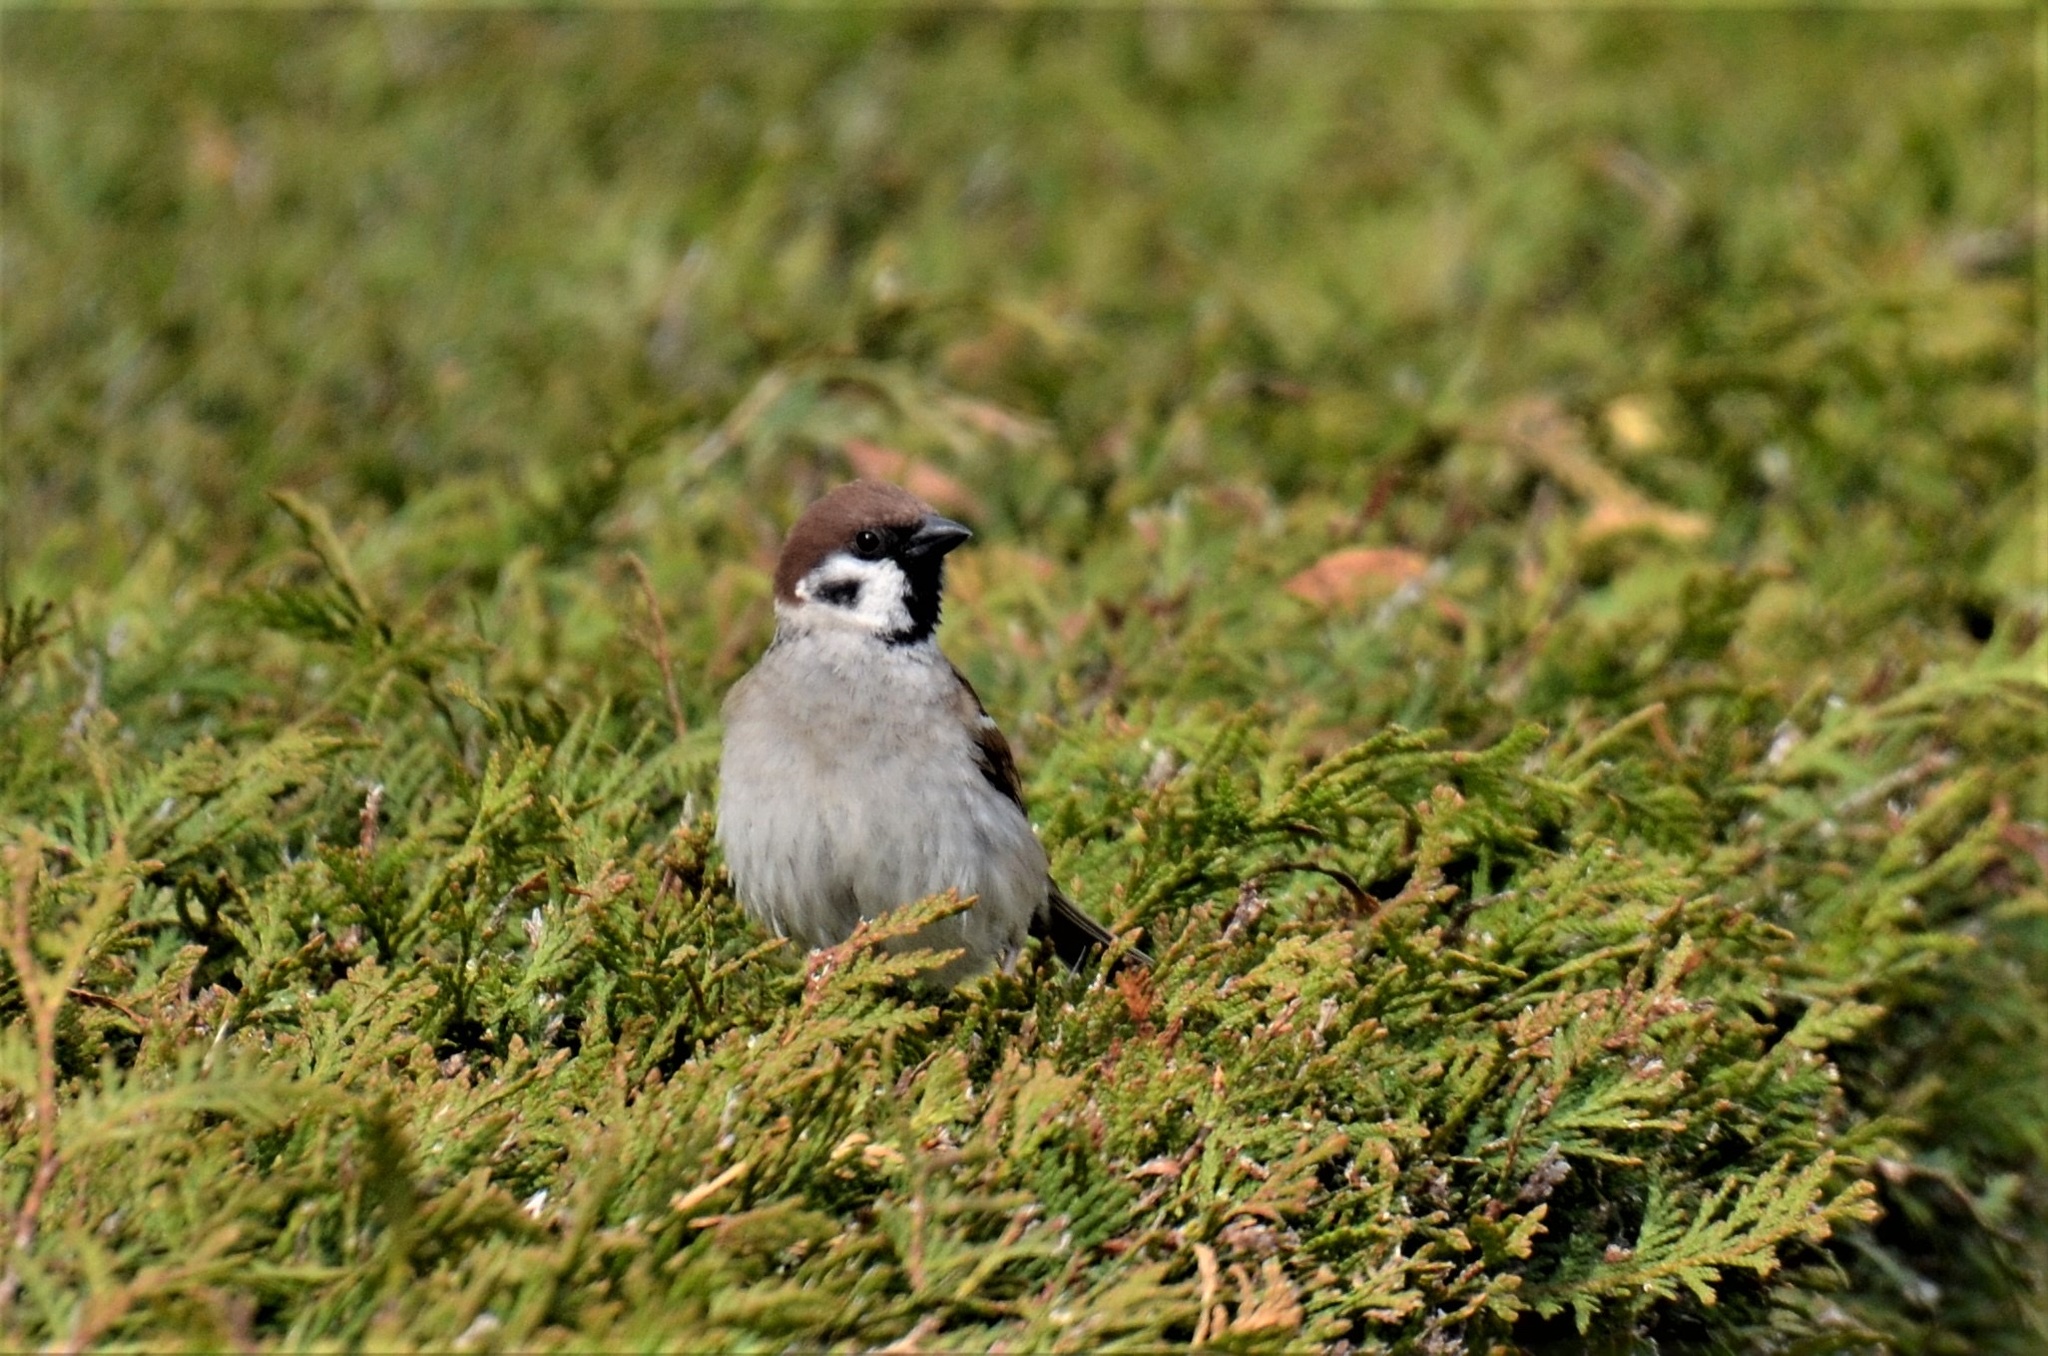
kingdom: Animalia
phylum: Chordata
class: Aves
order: Passeriformes
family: Passeridae
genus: Passer
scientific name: Passer montanus
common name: Eurasian tree sparrow
